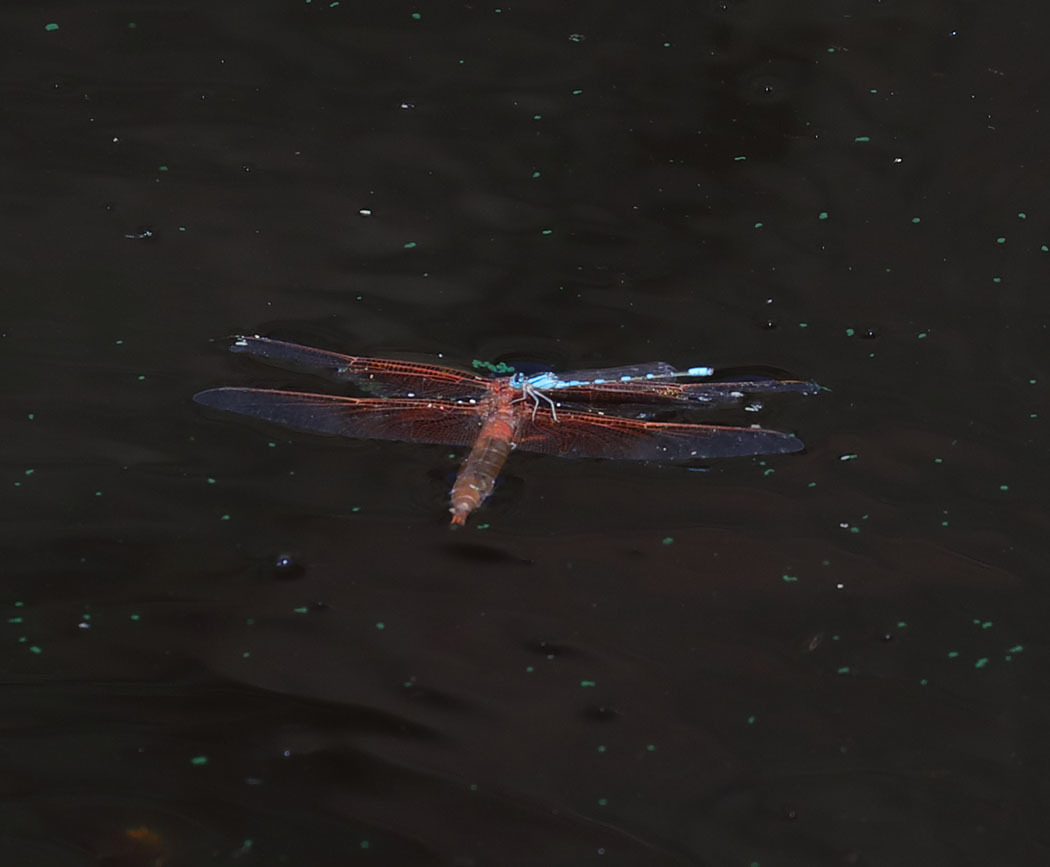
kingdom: Animalia
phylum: Arthropoda
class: Insecta
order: Odonata
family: Libellulidae
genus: Libellula
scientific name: Libellula saturata
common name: Flame skimmer
